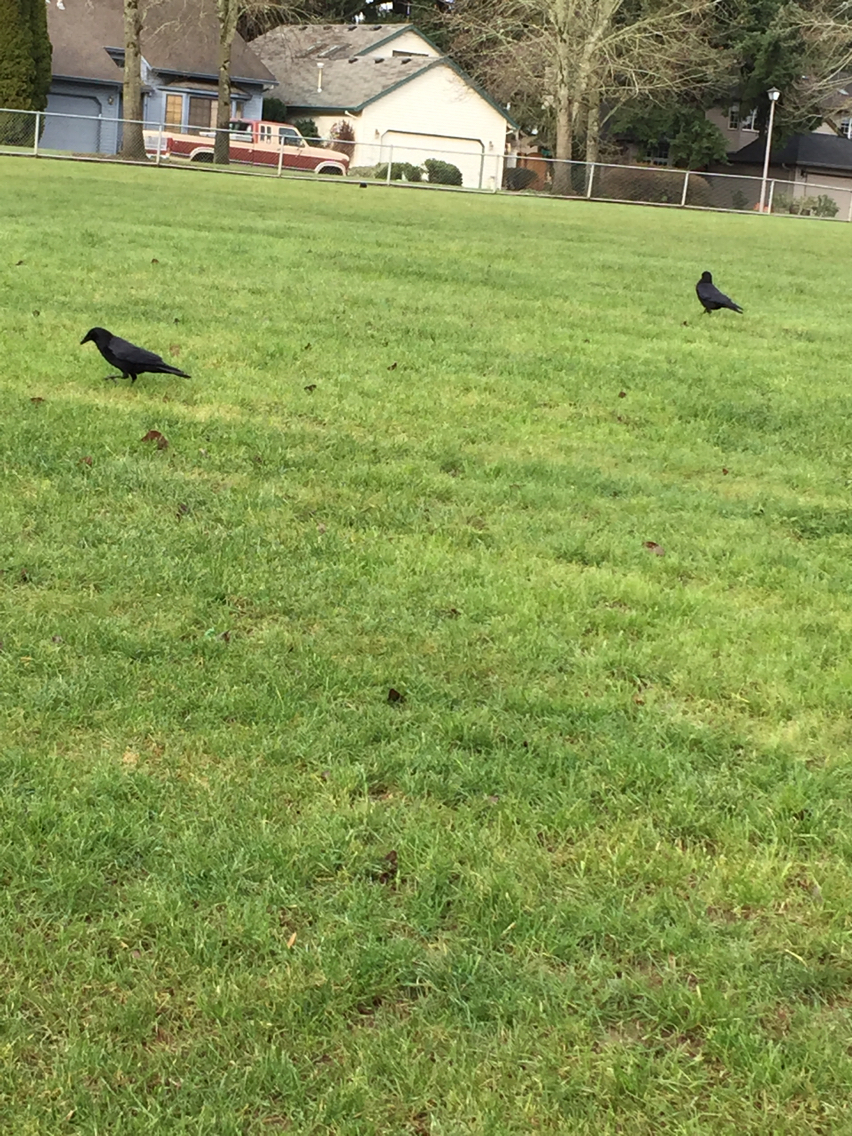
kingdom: Animalia
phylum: Chordata
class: Aves
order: Passeriformes
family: Corvidae
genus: Corvus
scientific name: Corvus brachyrhynchos
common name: American crow
